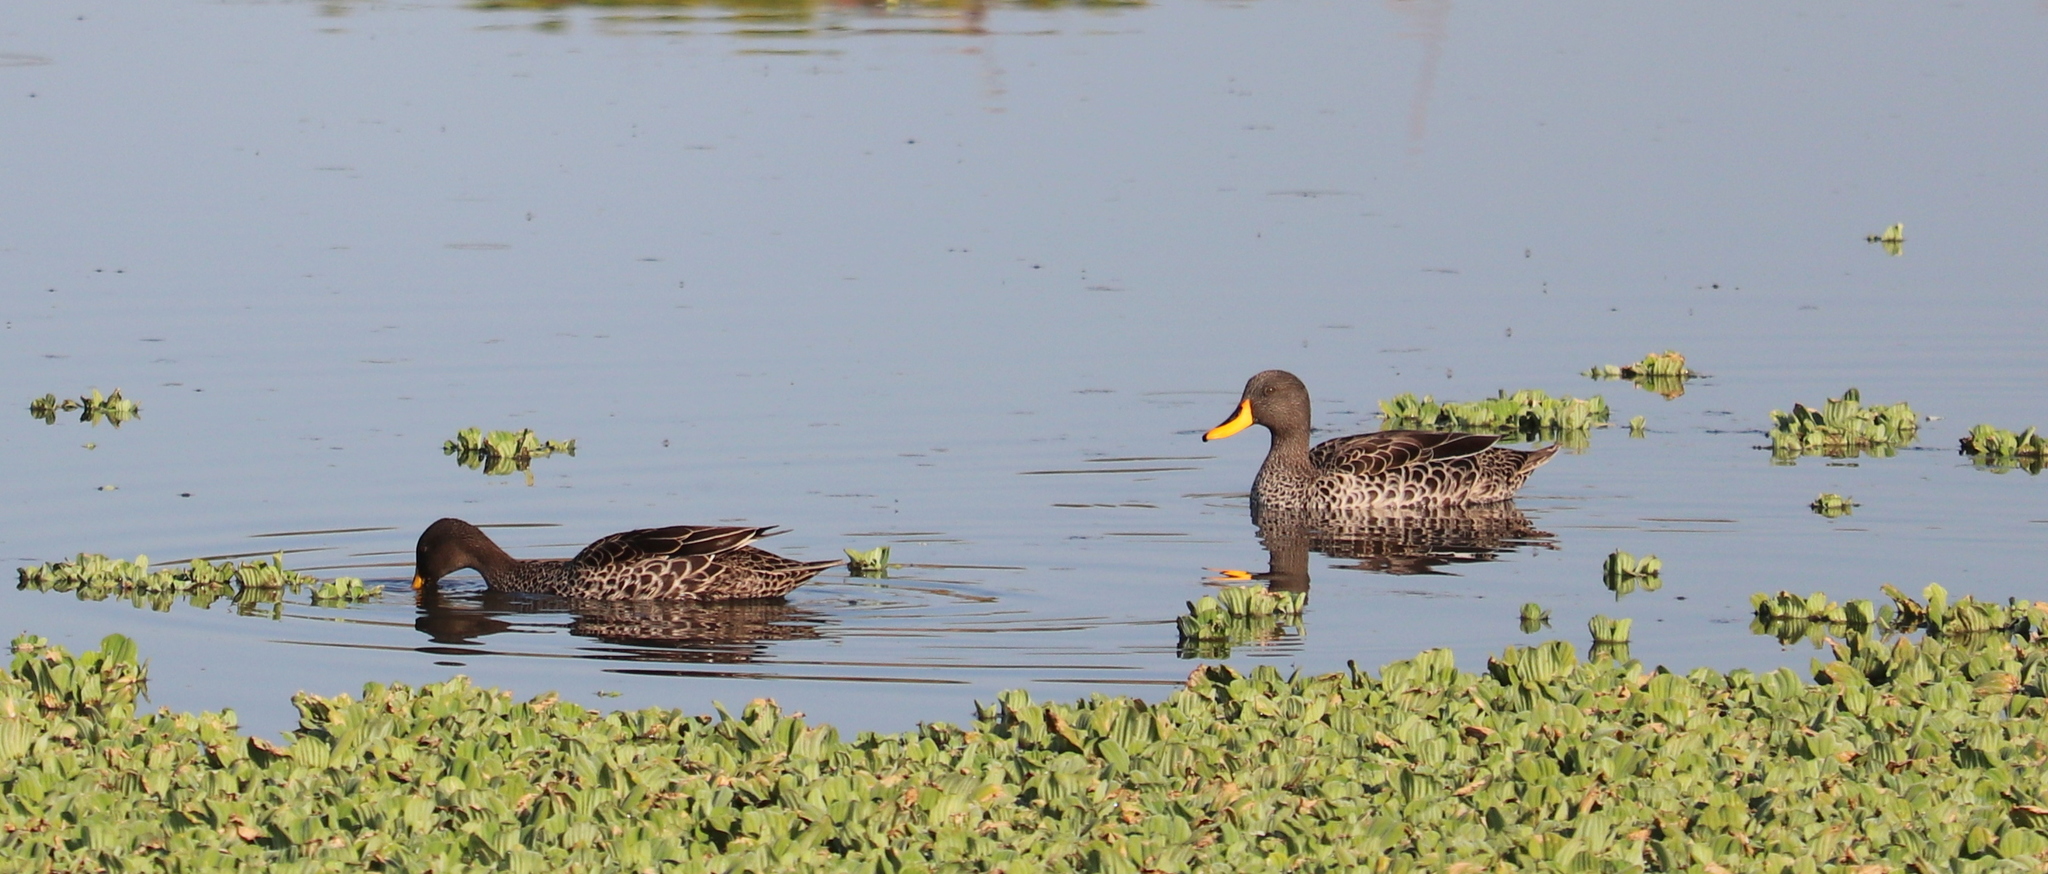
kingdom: Animalia
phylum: Chordata
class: Aves
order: Anseriformes
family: Anatidae
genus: Anas
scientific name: Anas undulata
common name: Yellow-billed duck
